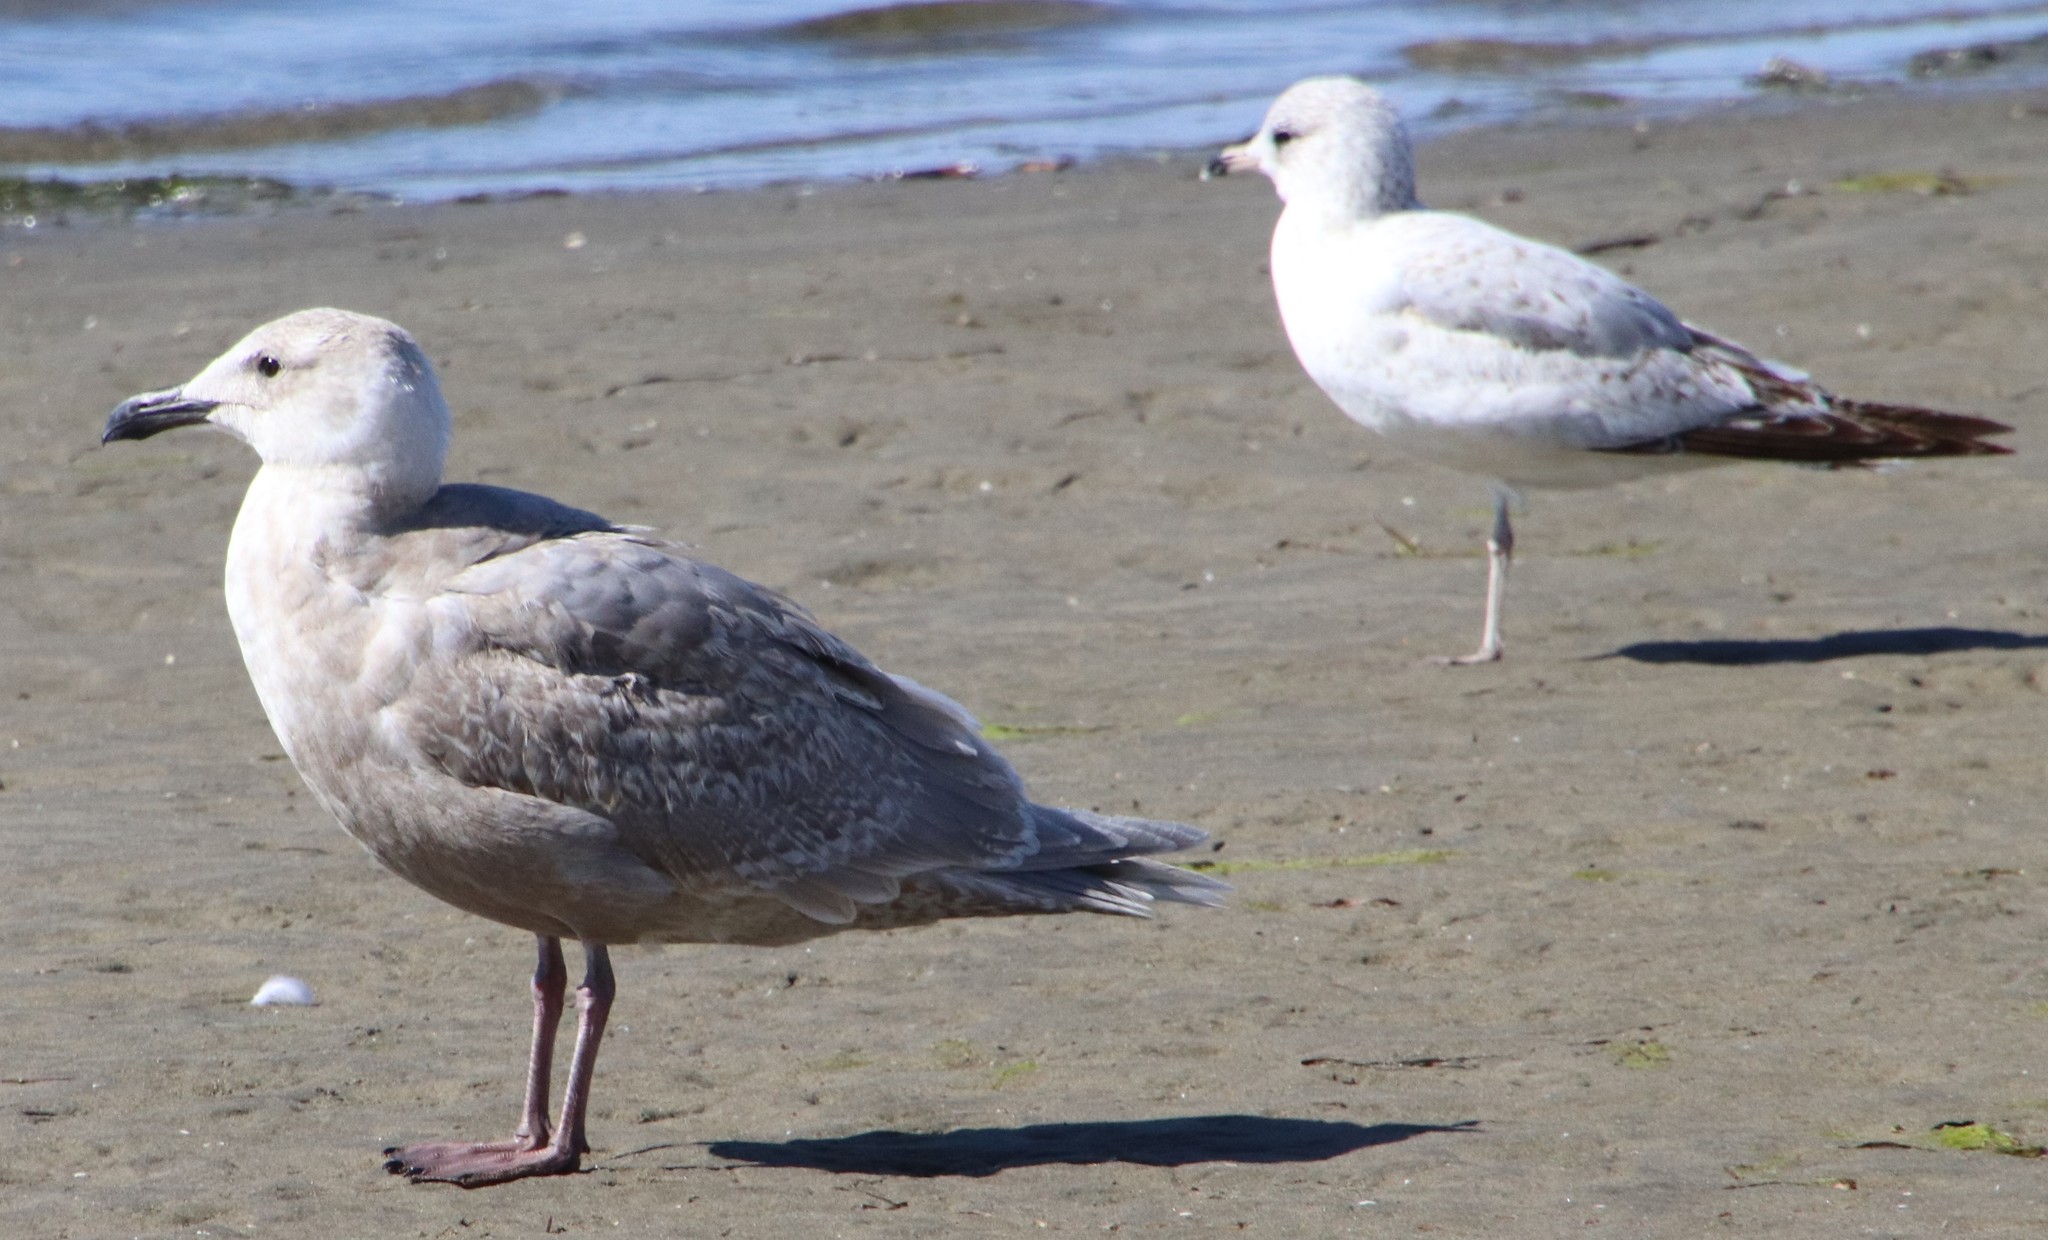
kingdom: Animalia
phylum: Chordata
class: Aves
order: Charadriiformes
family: Laridae
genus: Larus
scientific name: Larus glaucescens
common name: Glaucous-winged gull
